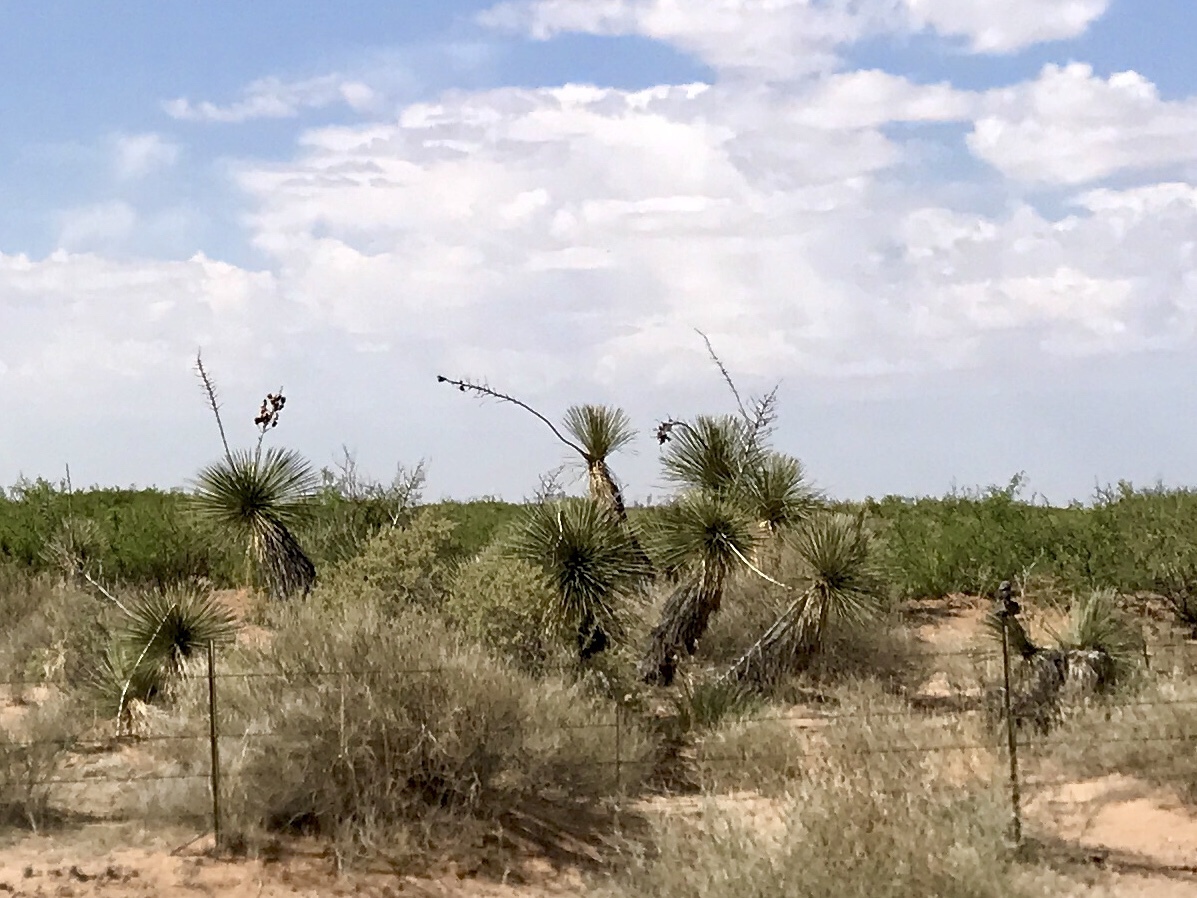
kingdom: Plantae
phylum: Tracheophyta
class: Liliopsida
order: Asparagales
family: Asparagaceae
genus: Yucca
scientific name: Yucca elata
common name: Palmella
